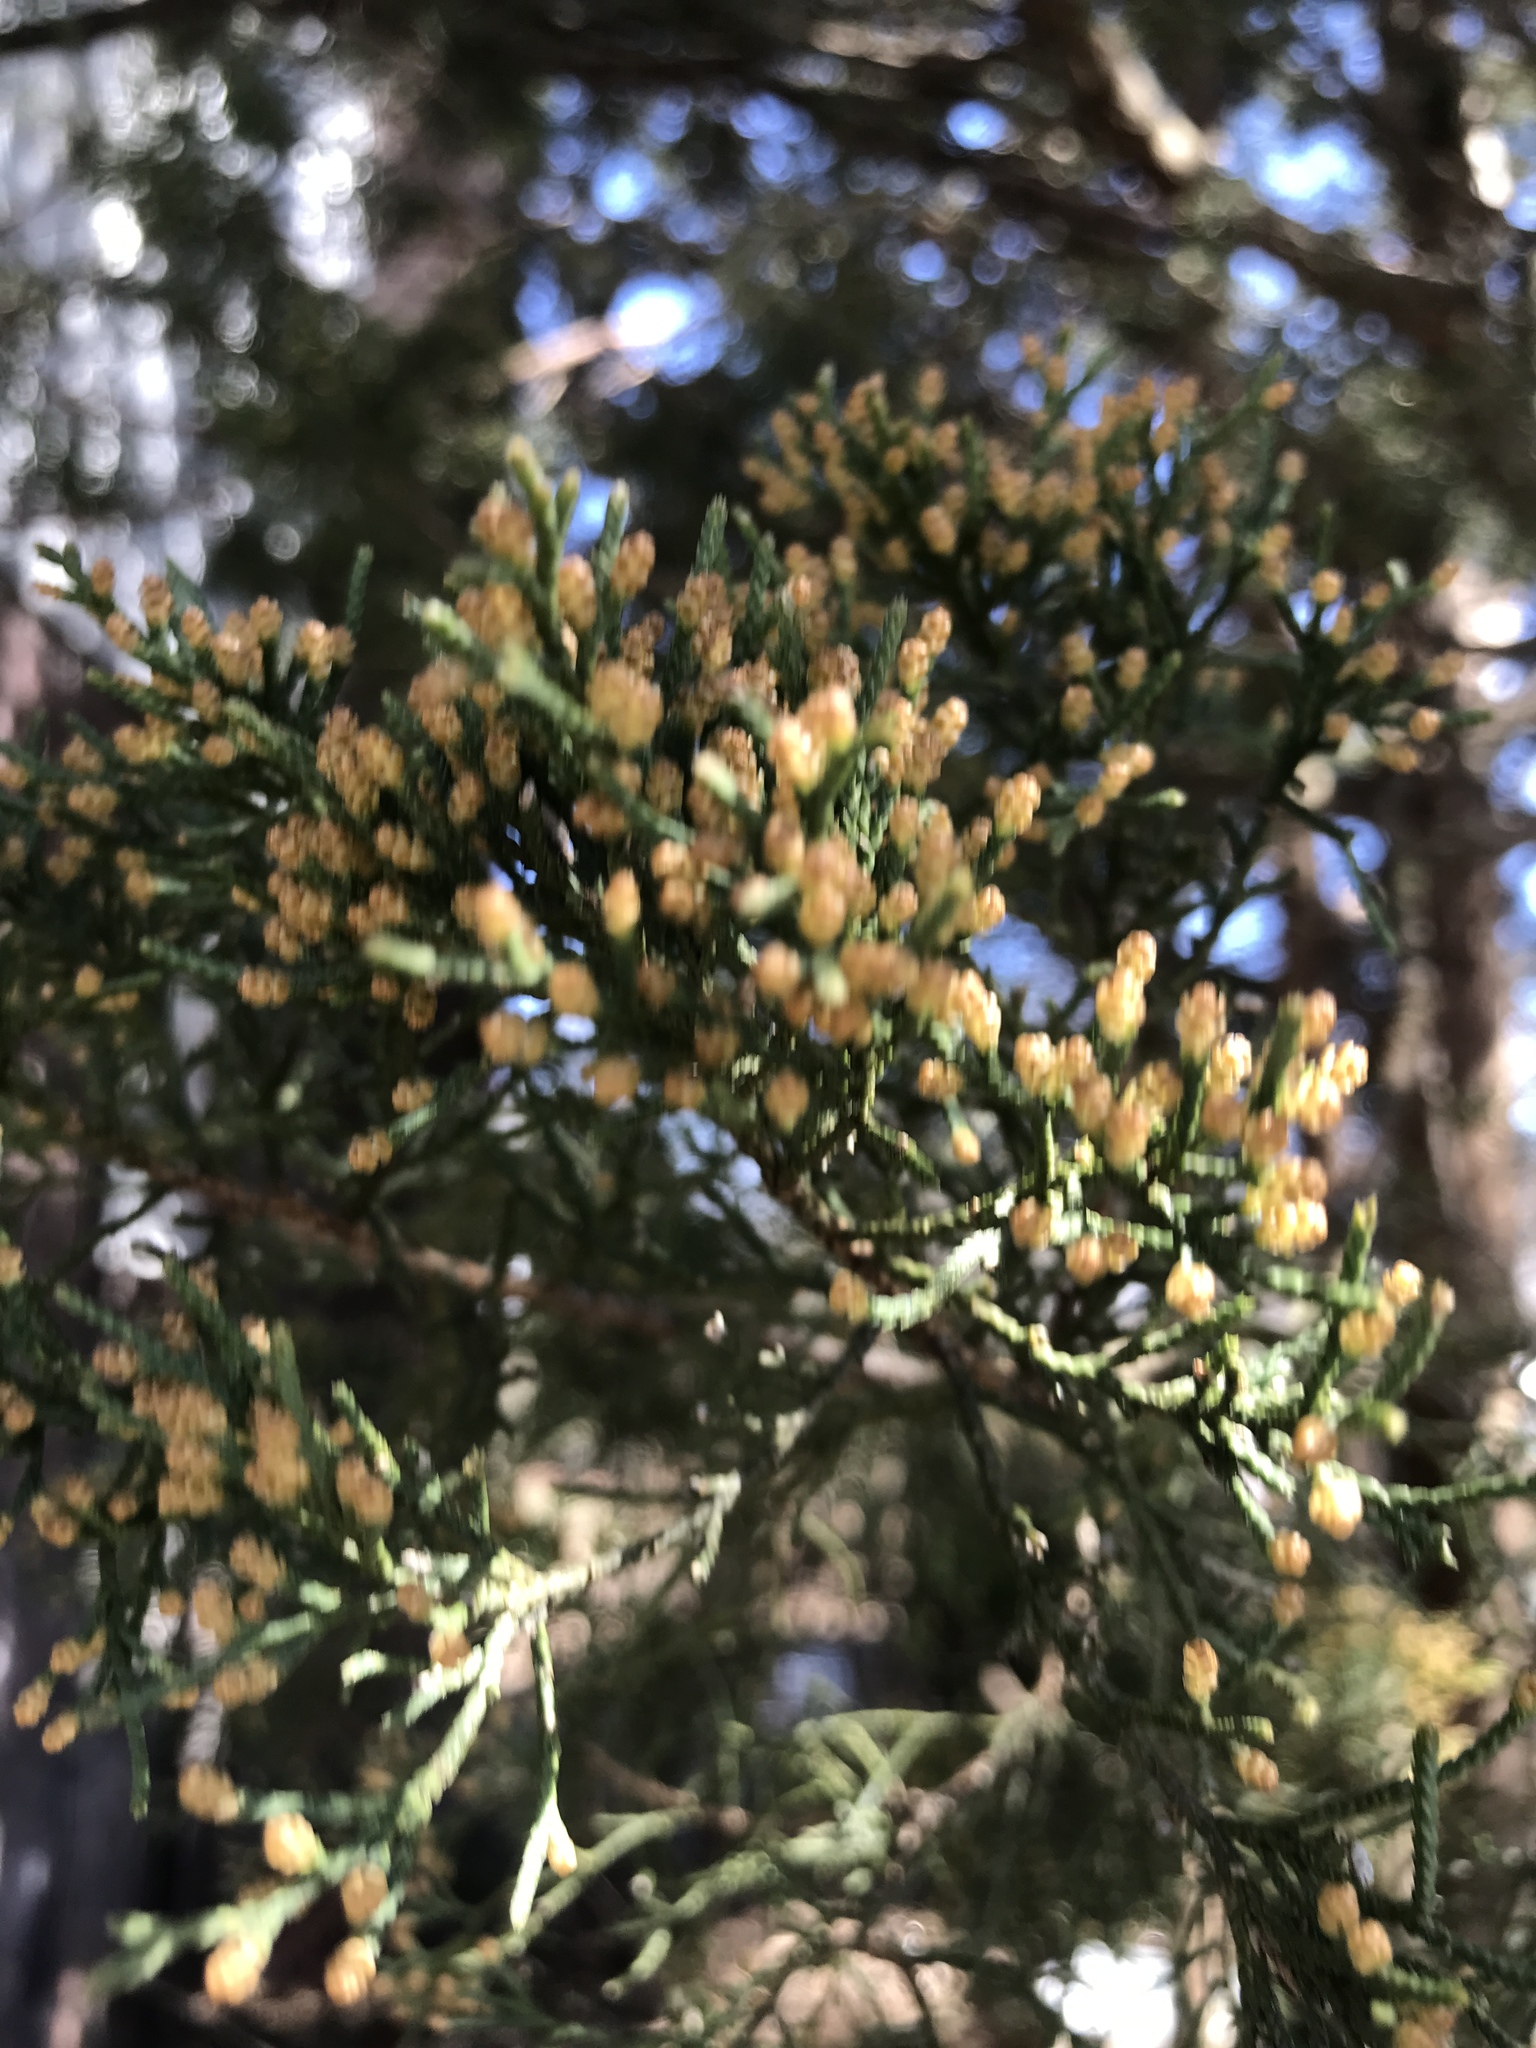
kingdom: Plantae
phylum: Tracheophyta
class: Pinopsida
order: Pinales
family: Cupressaceae
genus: Juniperus
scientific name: Juniperus virginiana
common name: Red juniper
